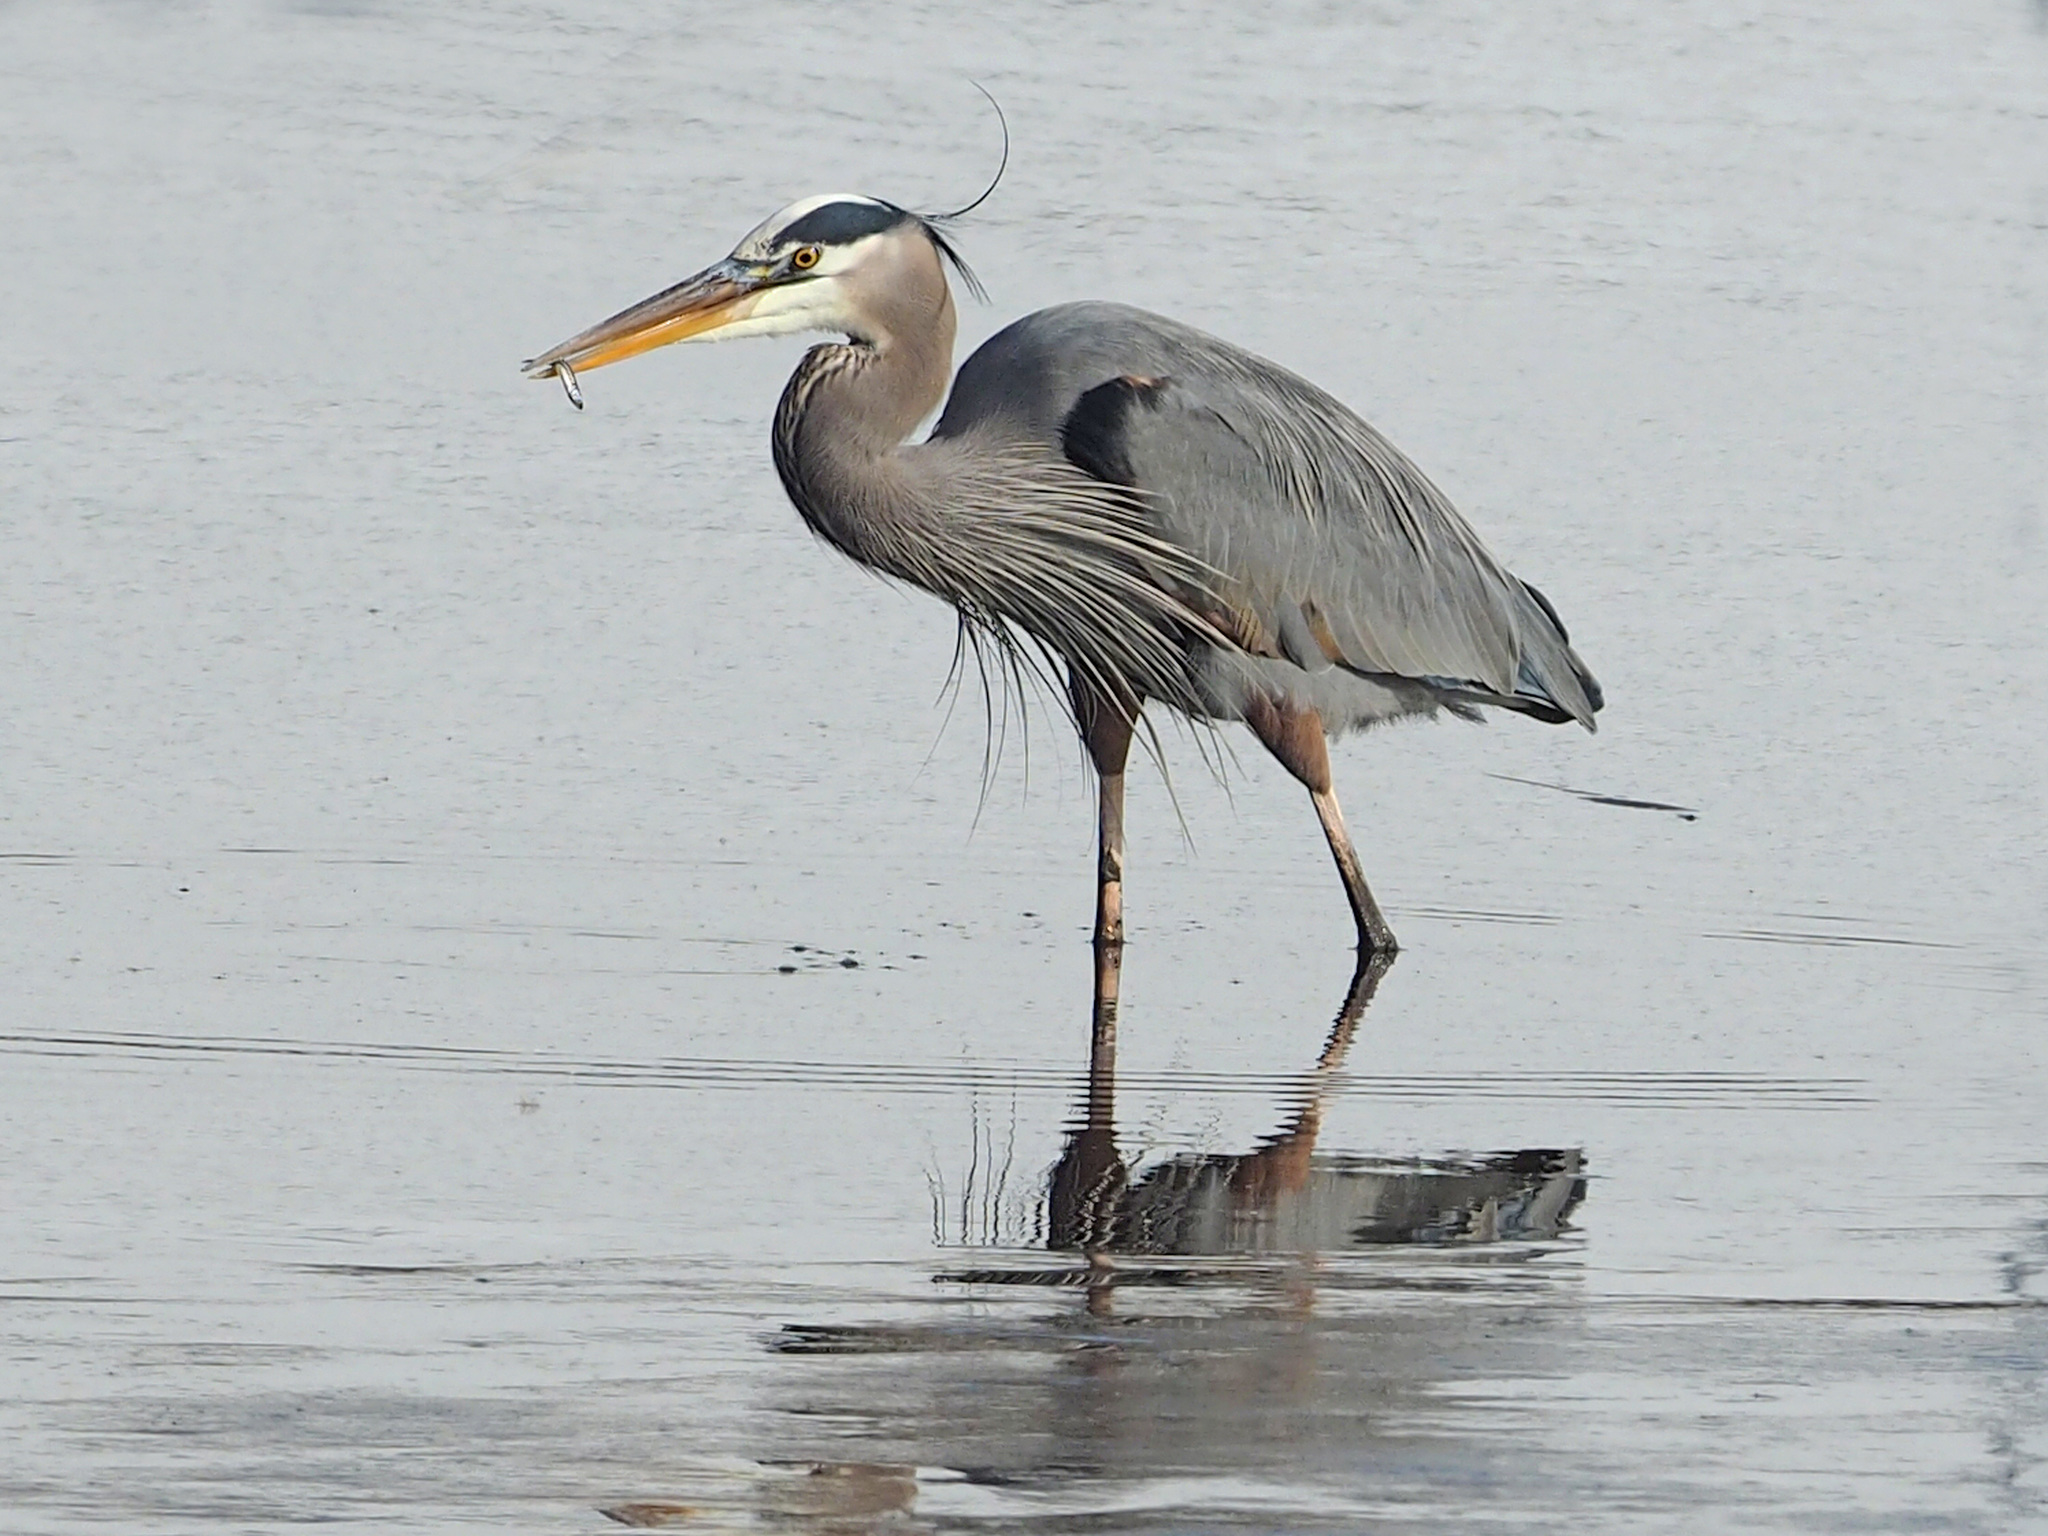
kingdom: Animalia
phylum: Chordata
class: Aves
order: Pelecaniformes
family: Ardeidae
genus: Ardea
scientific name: Ardea herodias
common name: Great blue heron
